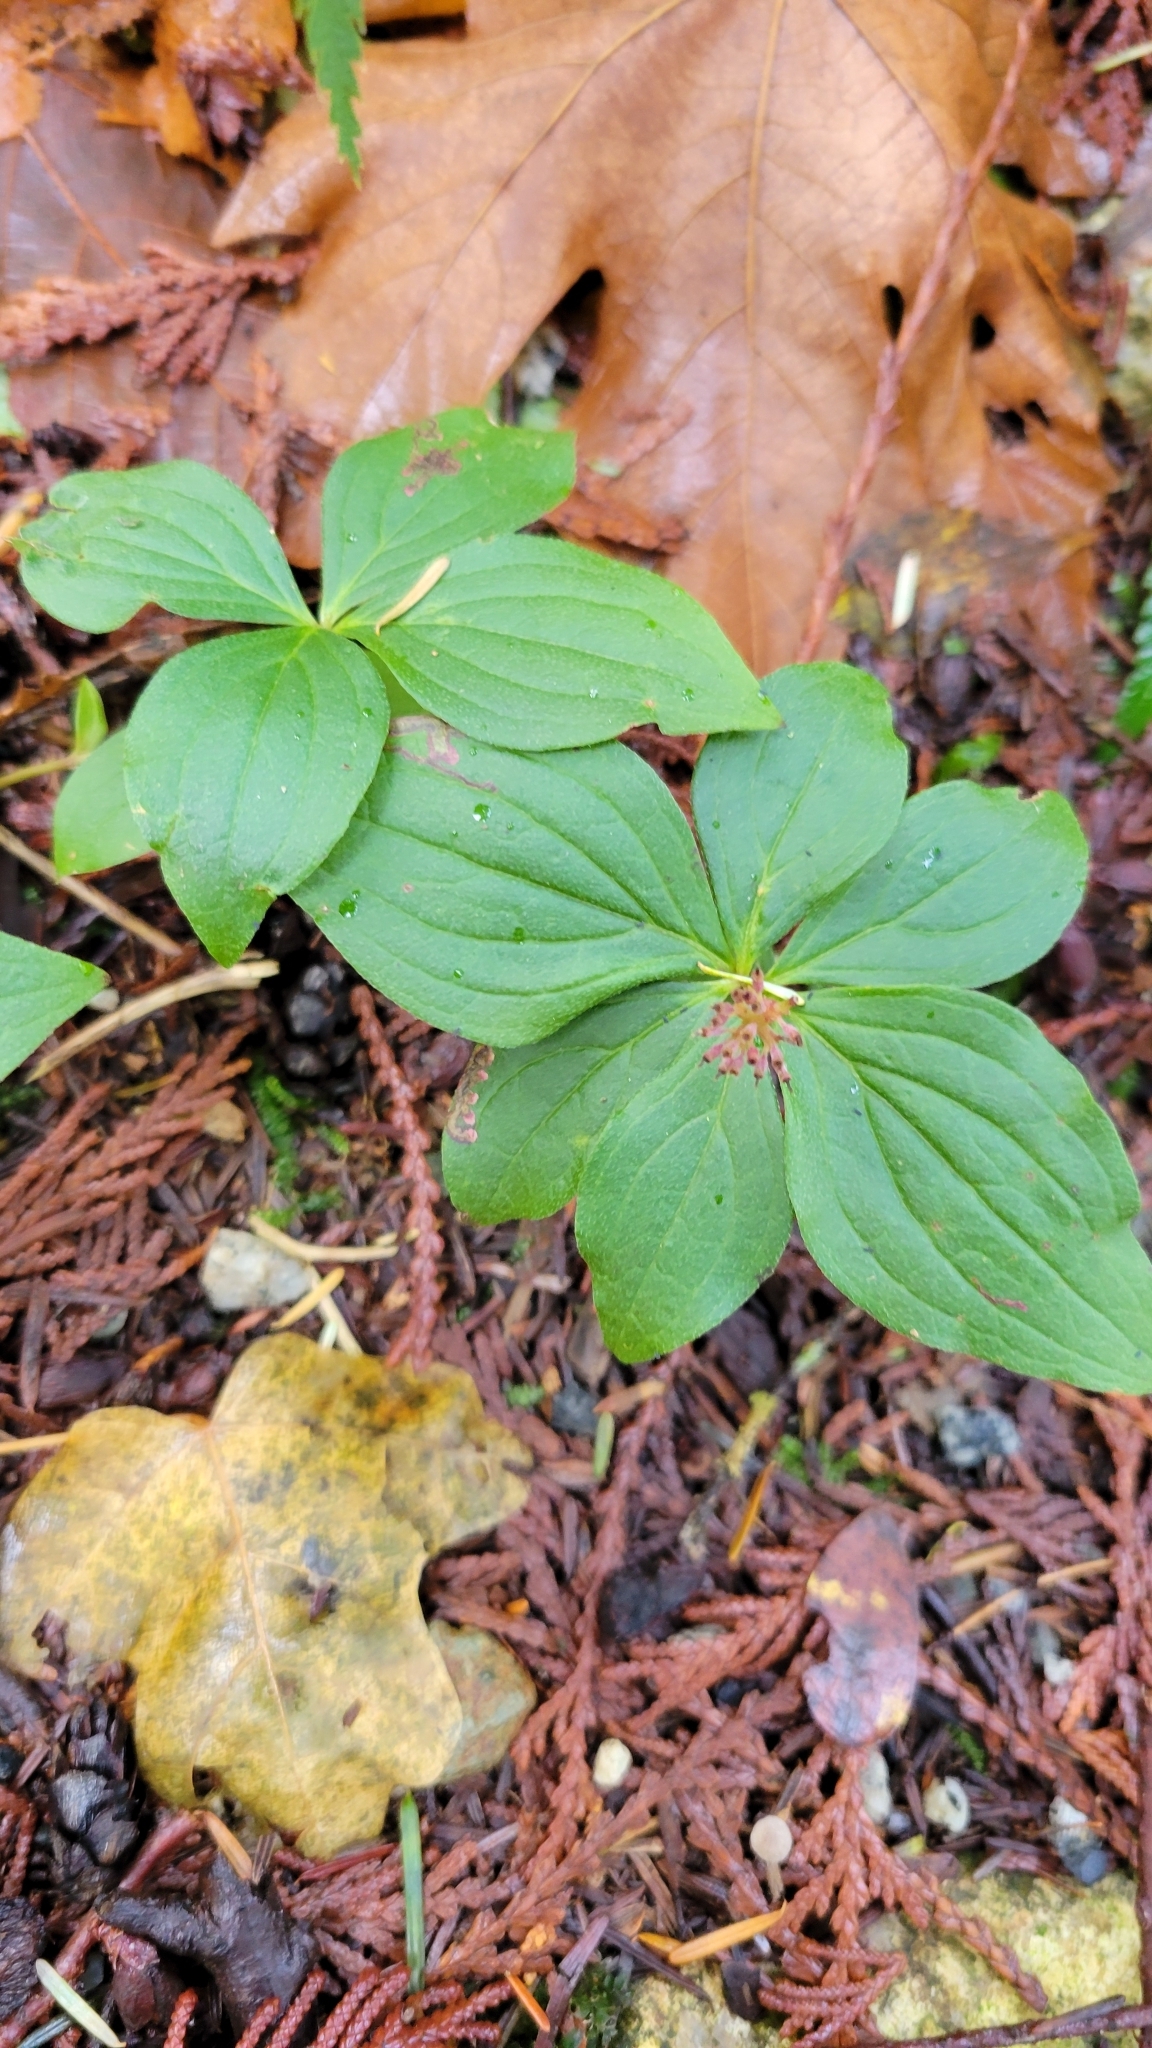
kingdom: Plantae
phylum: Tracheophyta
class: Magnoliopsida
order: Cornales
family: Cornaceae
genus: Cornus
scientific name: Cornus unalaschkensis
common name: Alaska bunchberry
